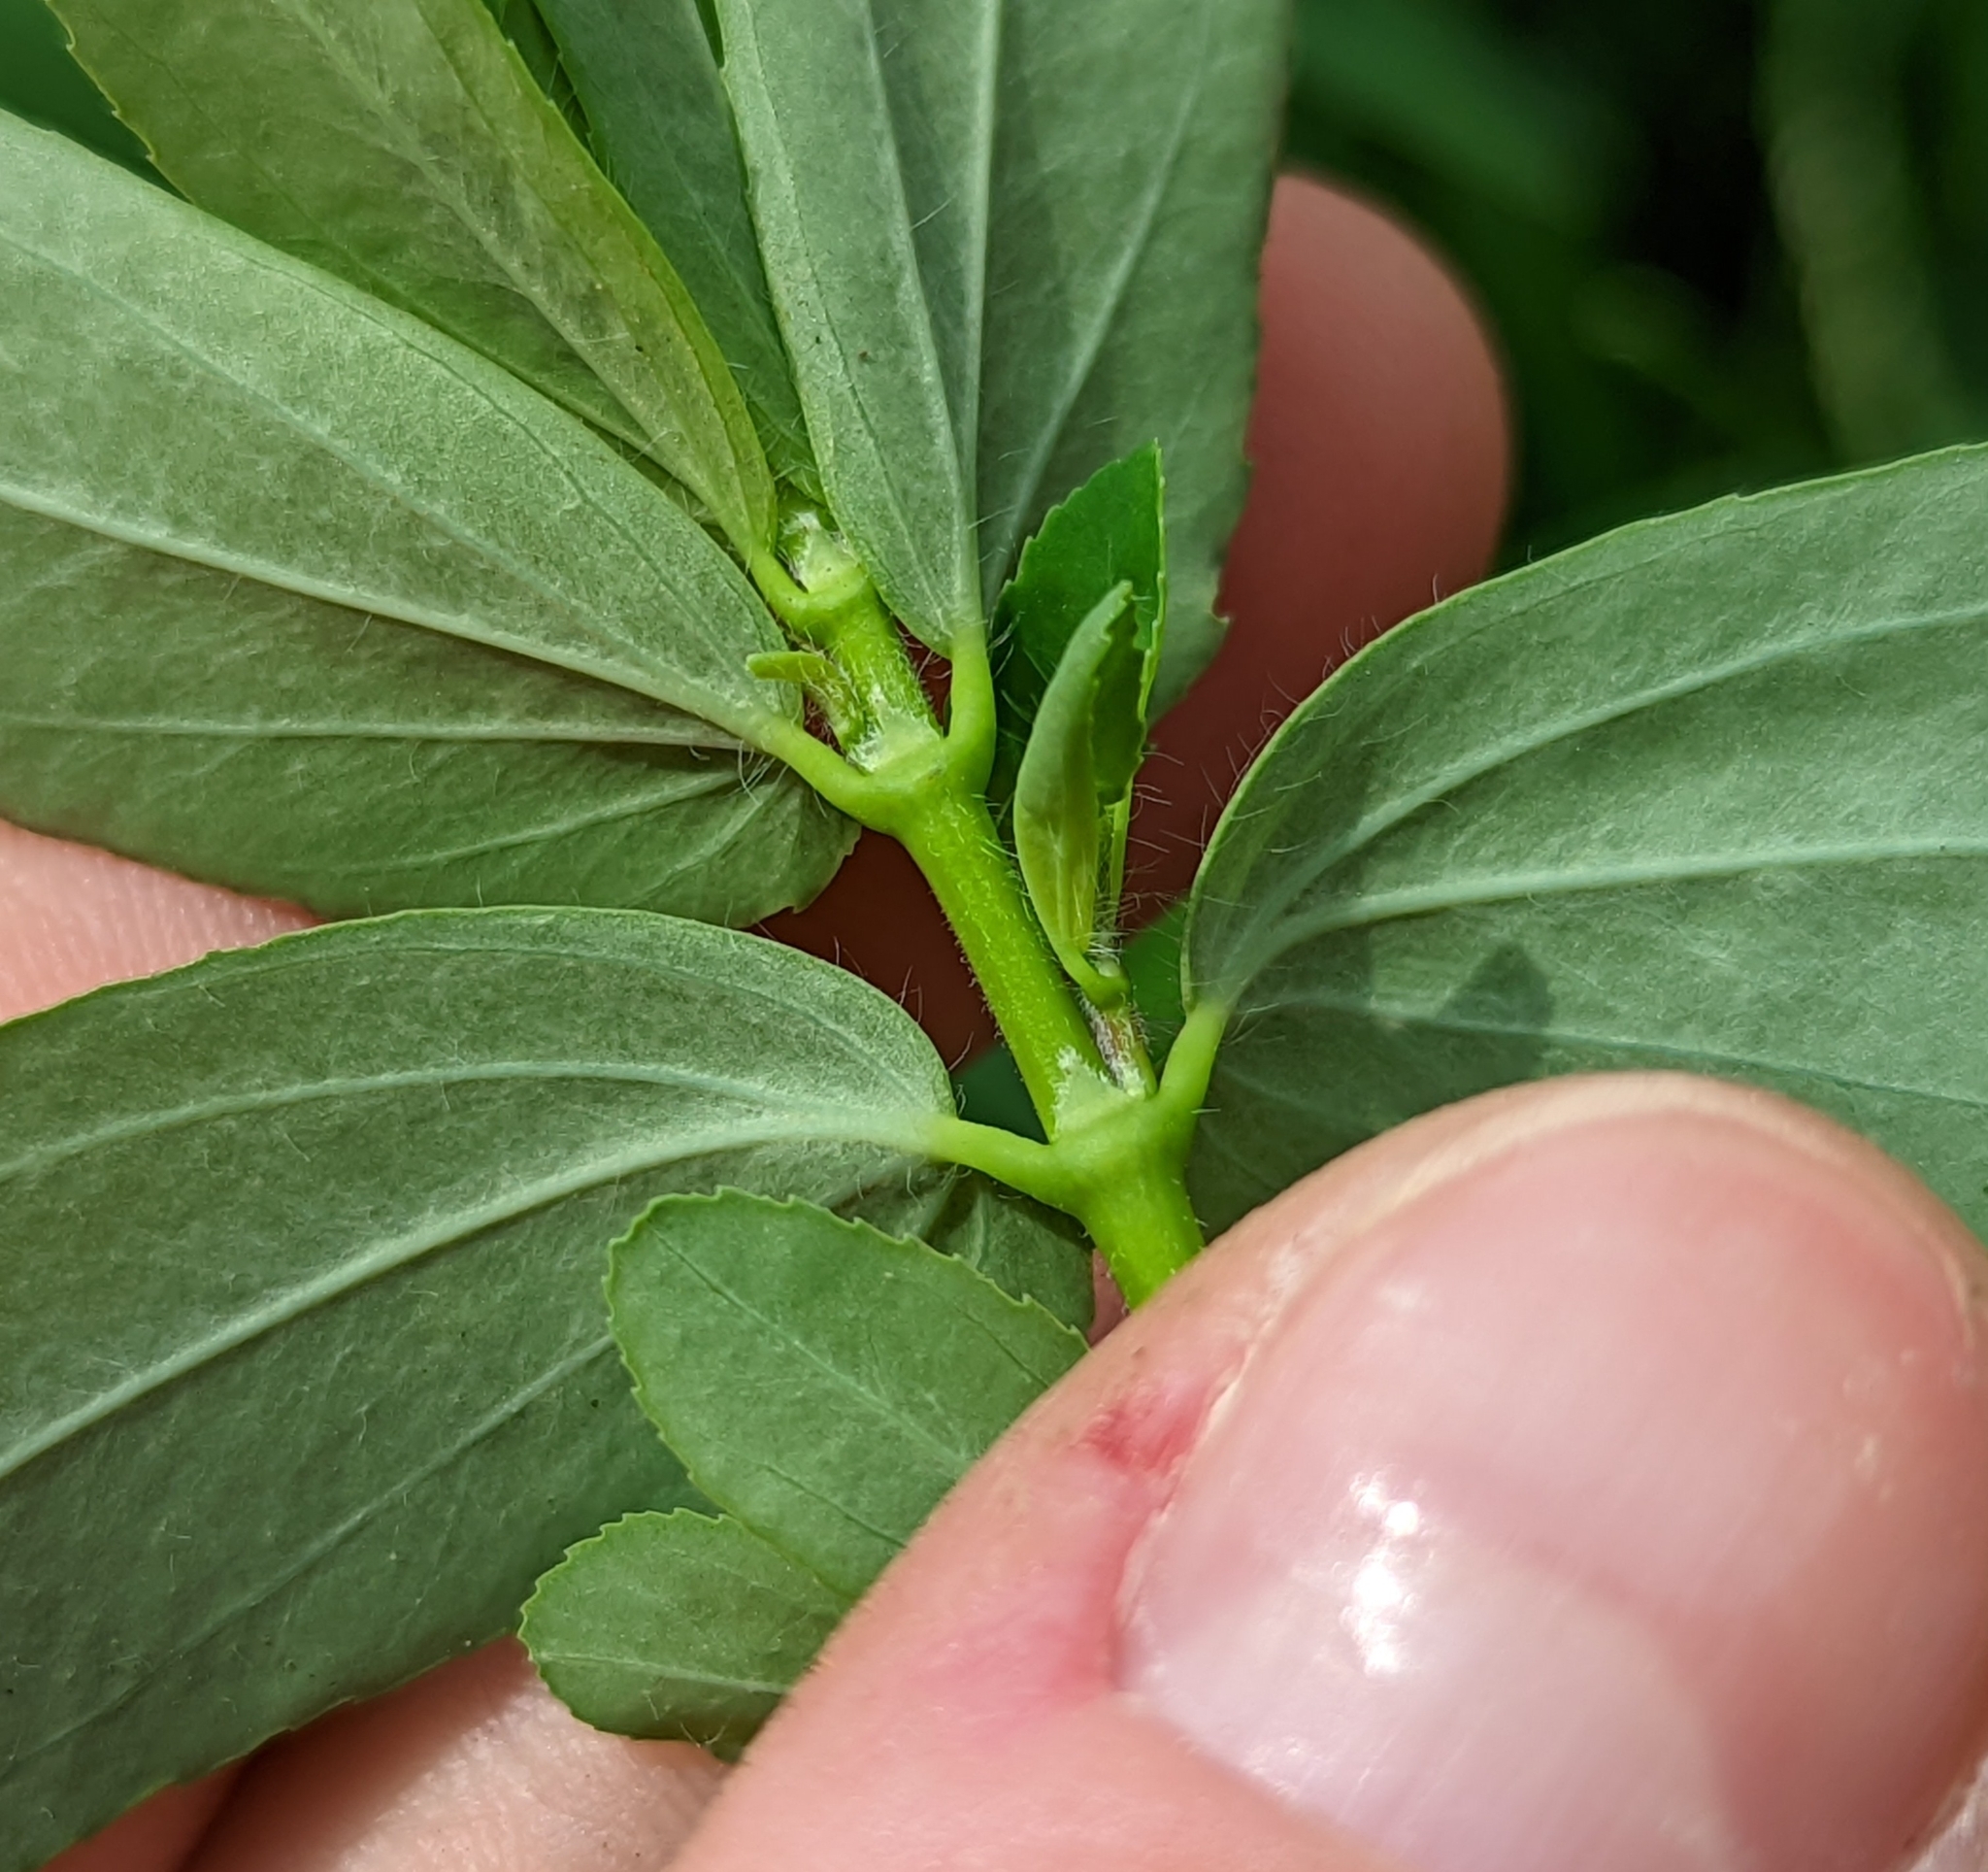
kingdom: Plantae
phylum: Tracheophyta
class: Magnoliopsida
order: Malpighiales
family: Euphorbiaceae
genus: Euphorbia
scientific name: Euphorbia nutans
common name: Eyebane
